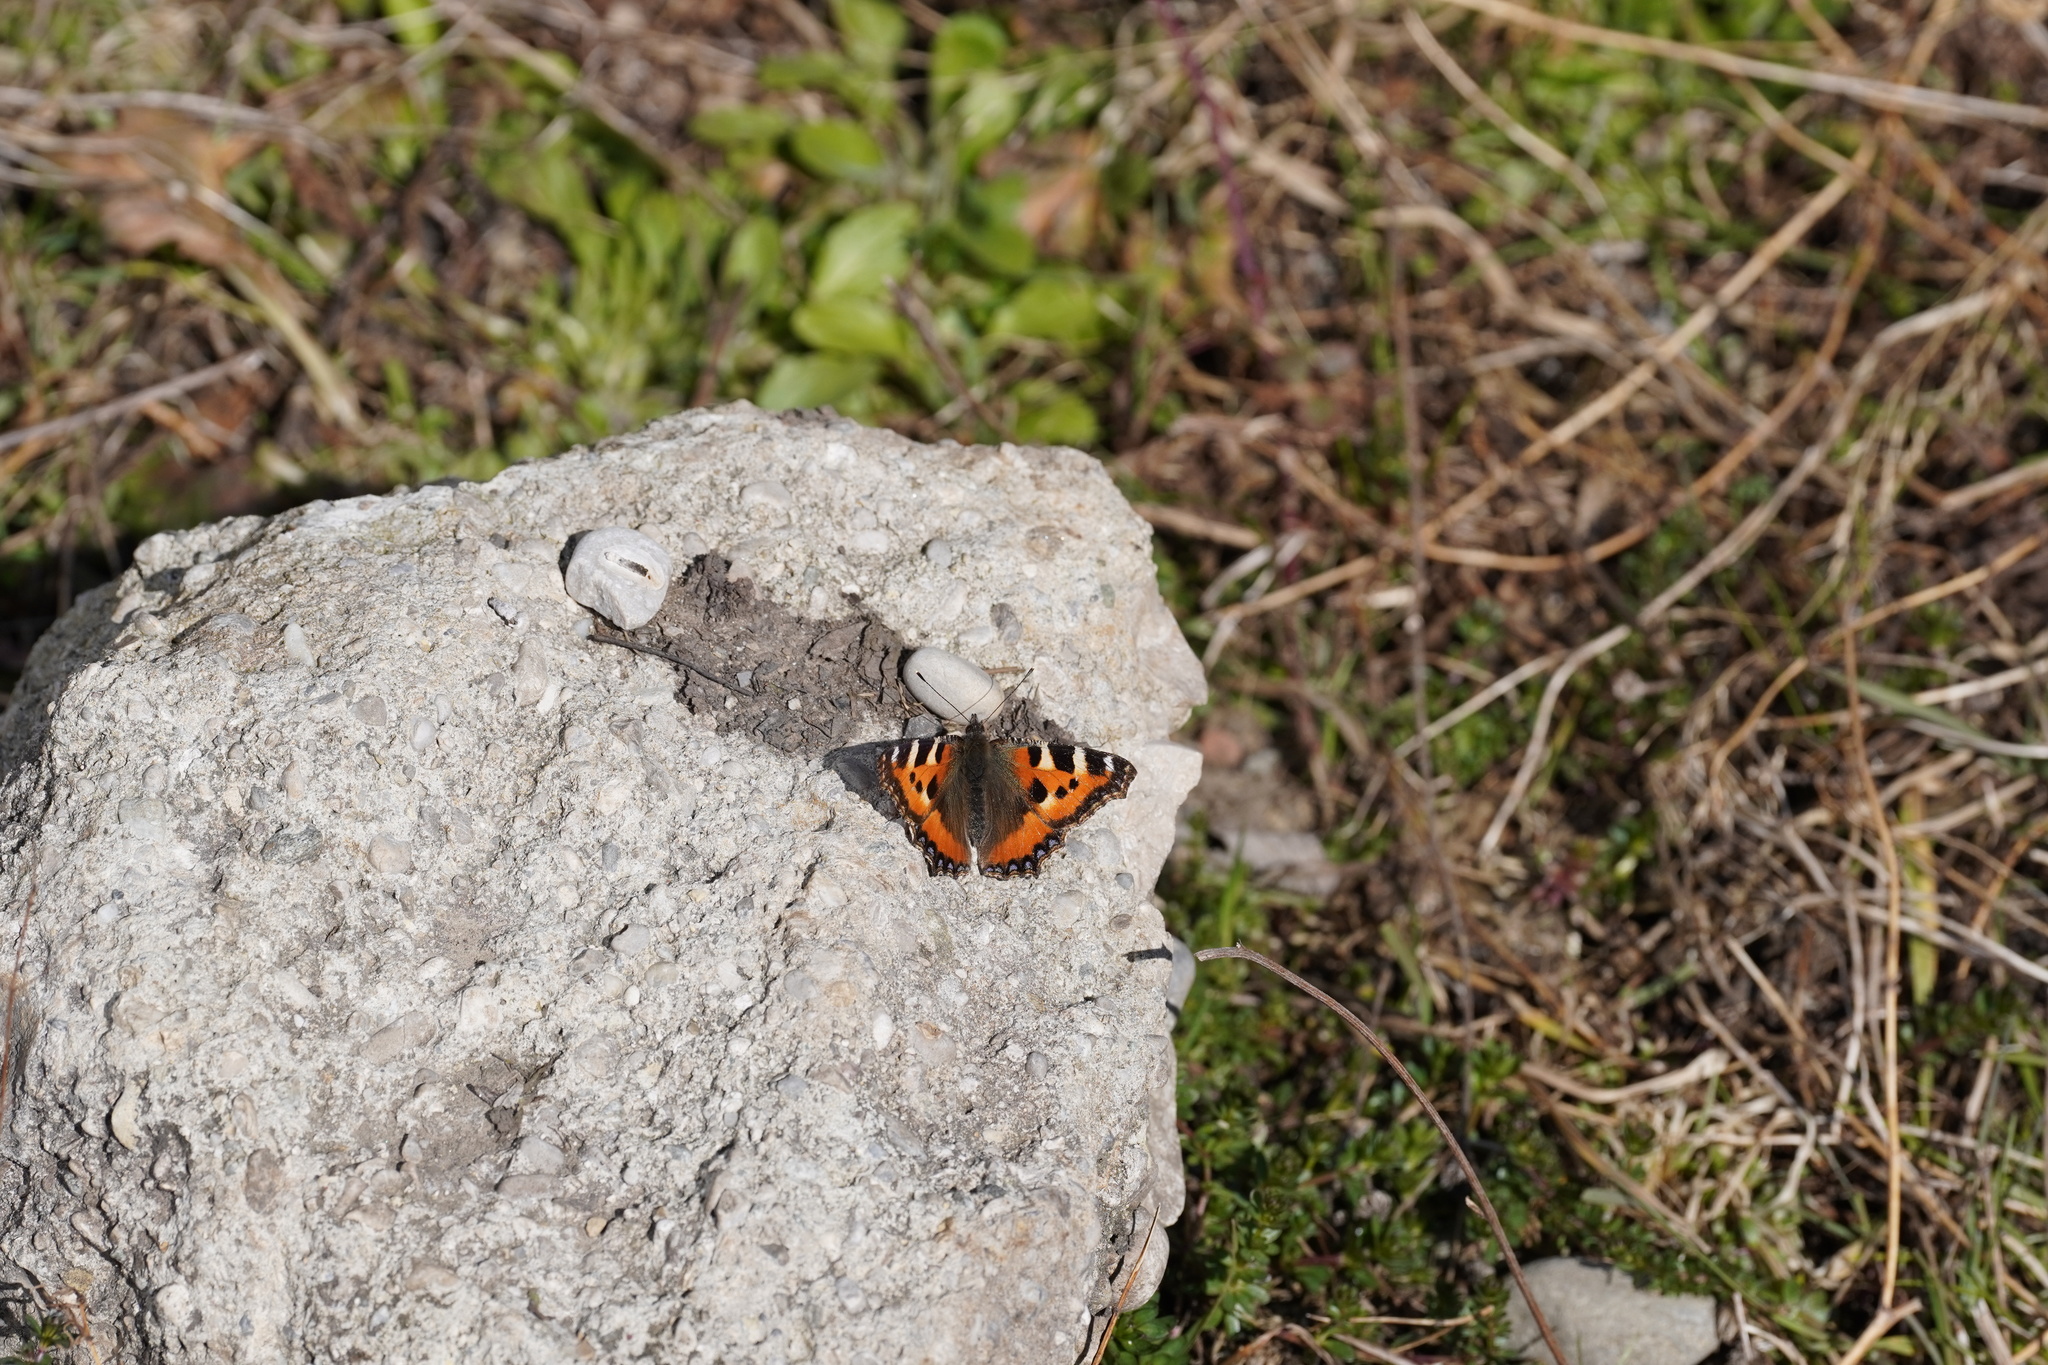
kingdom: Animalia
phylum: Arthropoda
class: Insecta
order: Lepidoptera
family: Nymphalidae
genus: Aglais
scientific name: Aglais urticae
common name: Small tortoiseshell
